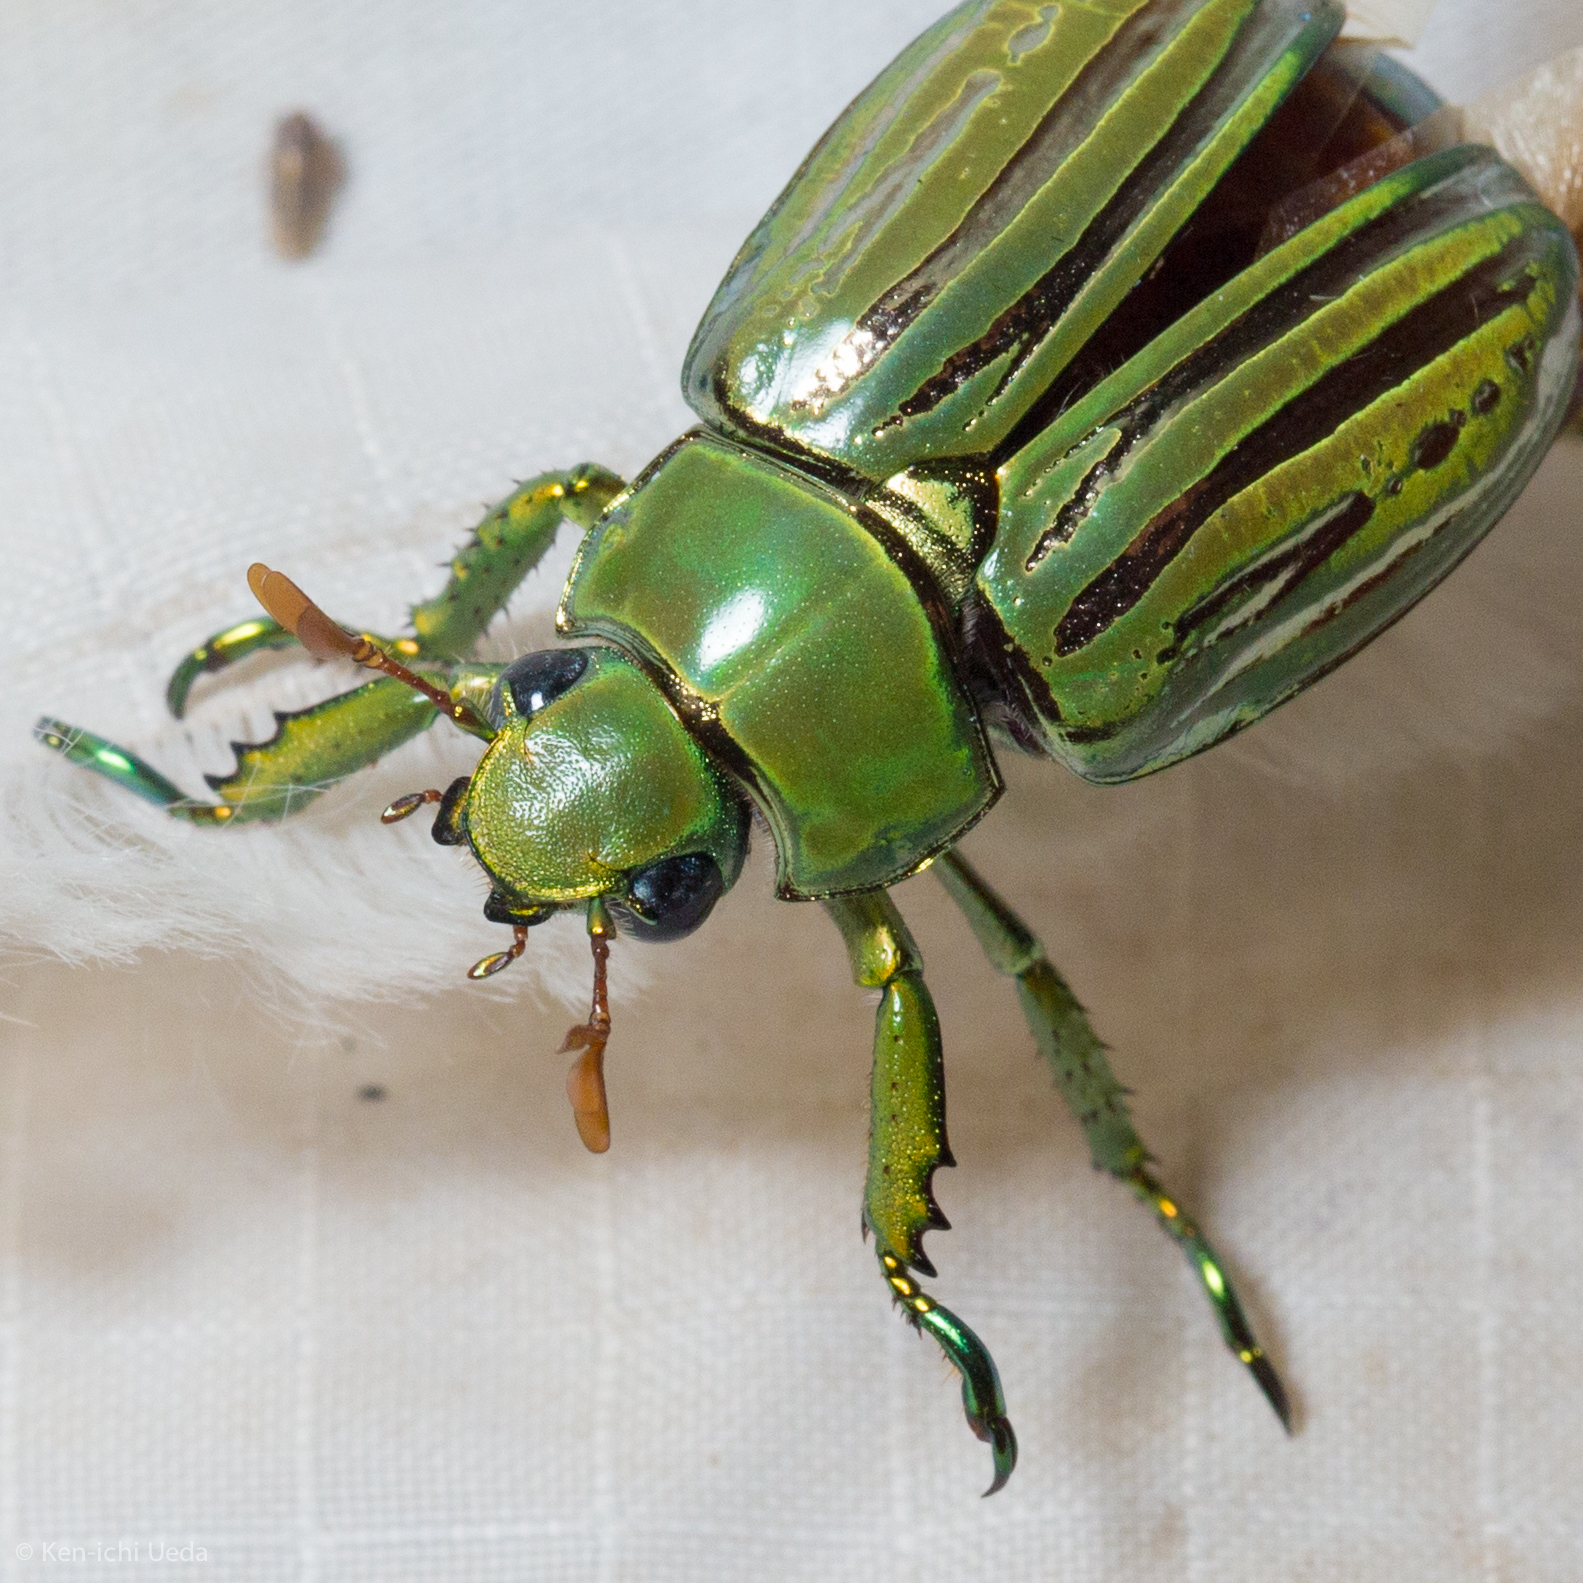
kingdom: Animalia
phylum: Arthropoda
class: Insecta
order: Coleoptera
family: Scarabaeidae
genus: Chrysina
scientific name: Chrysina gloriosa
